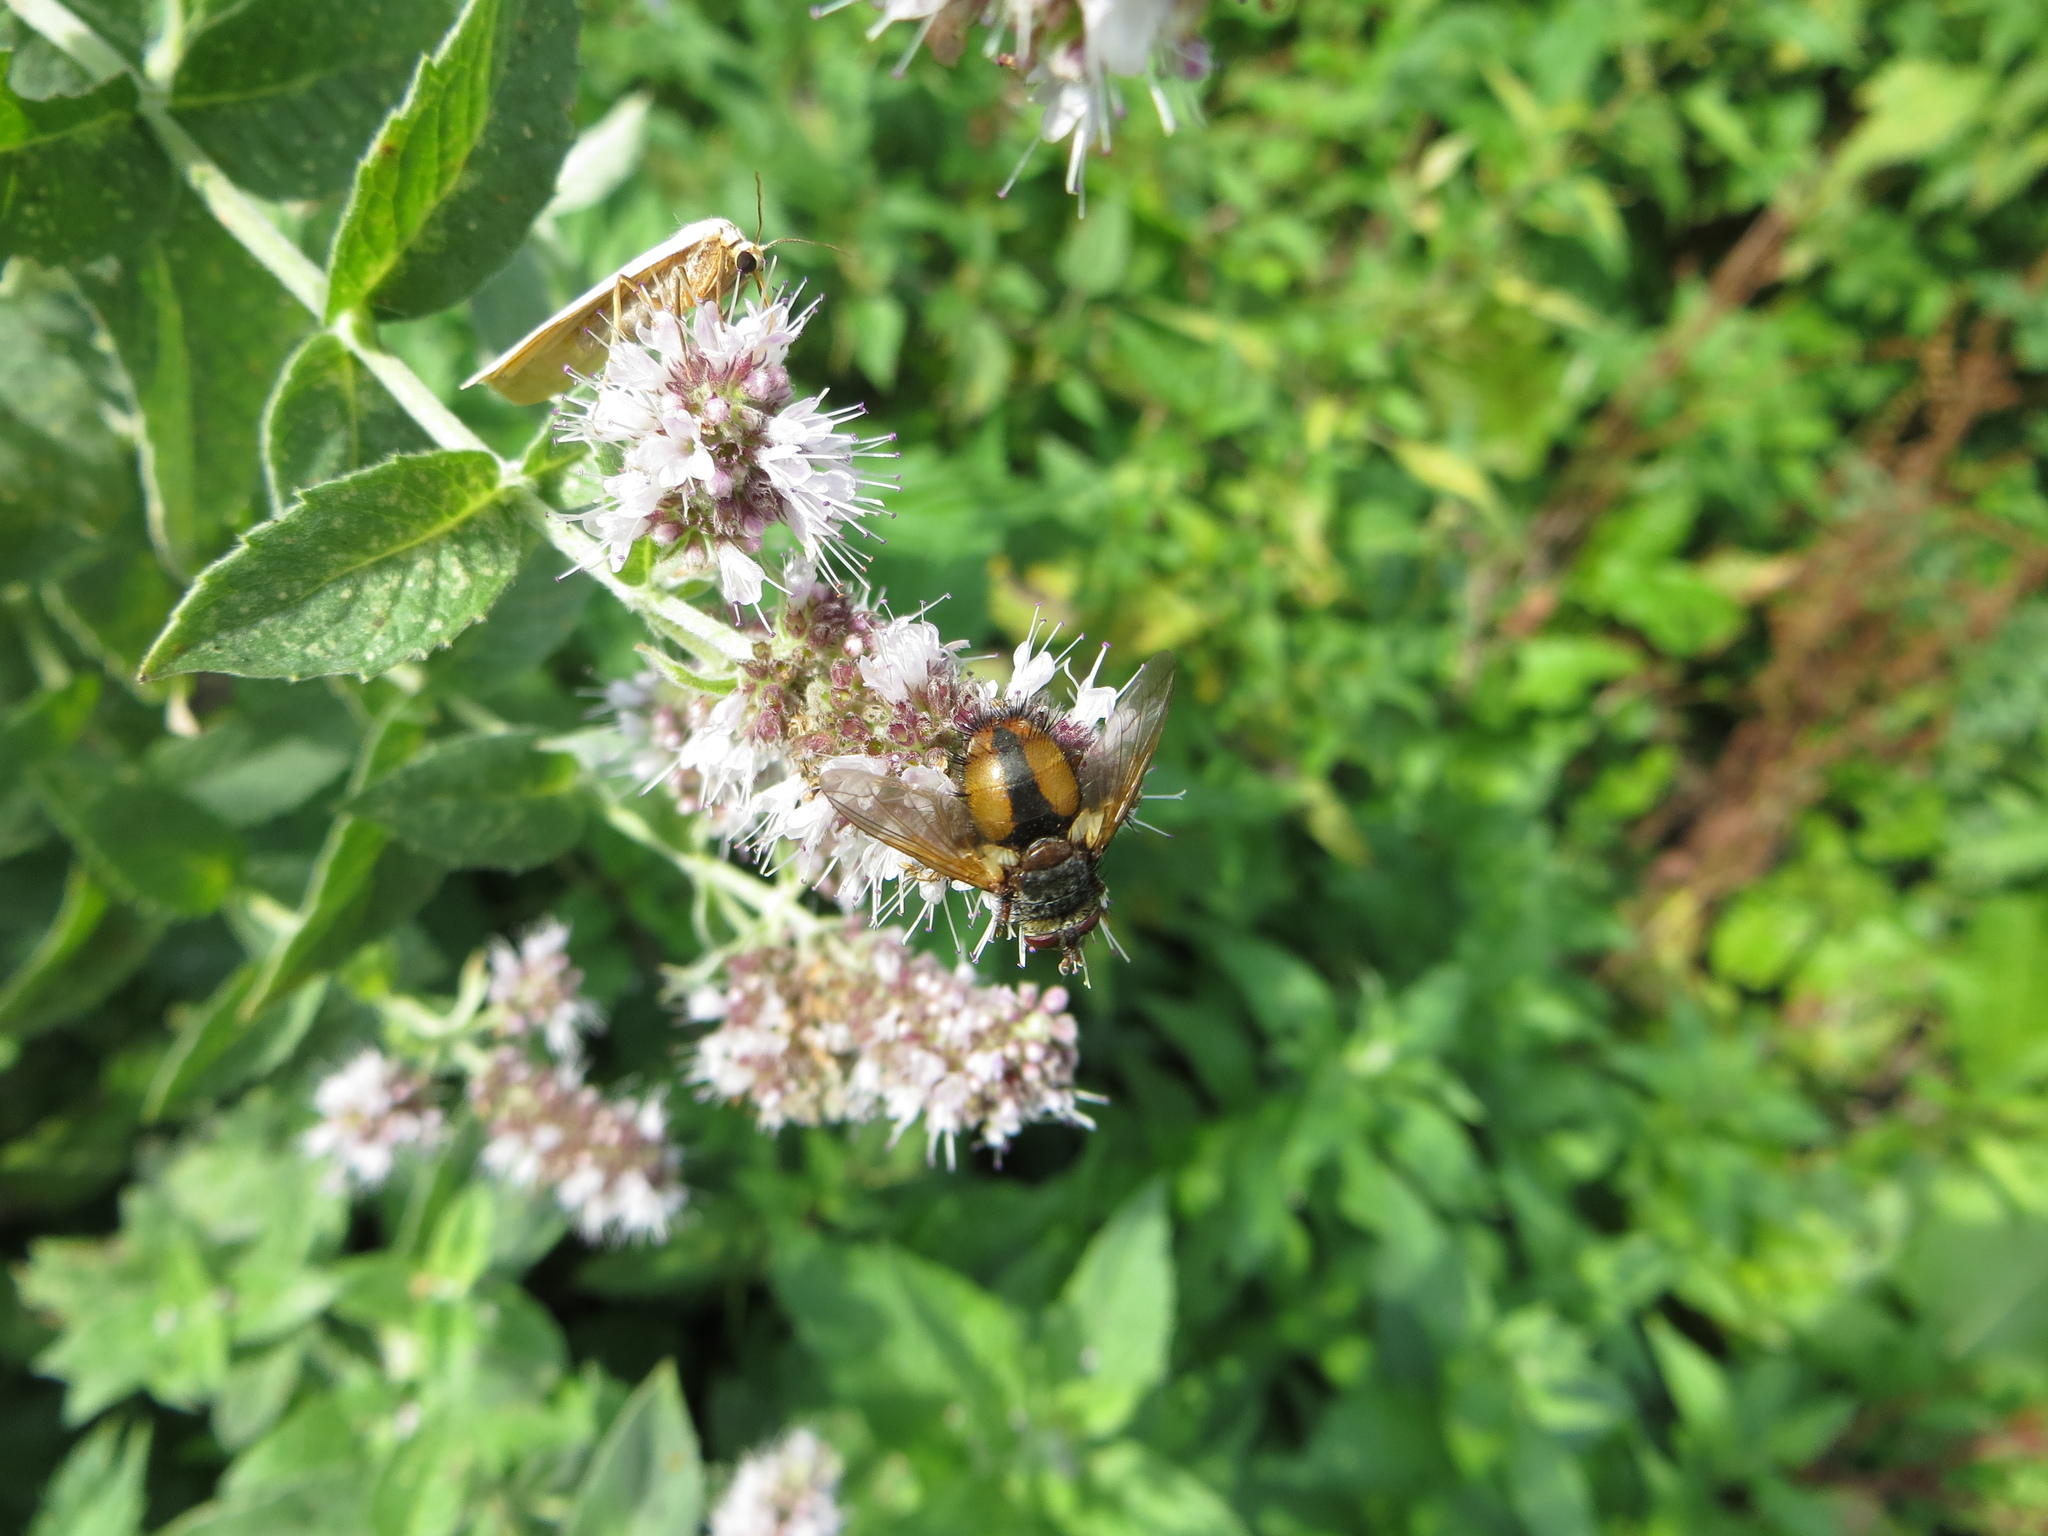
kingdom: Animalia
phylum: Arthropoda
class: Insecta
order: Diptera
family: Tachinidae
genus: Tachina
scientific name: Tachina fera
